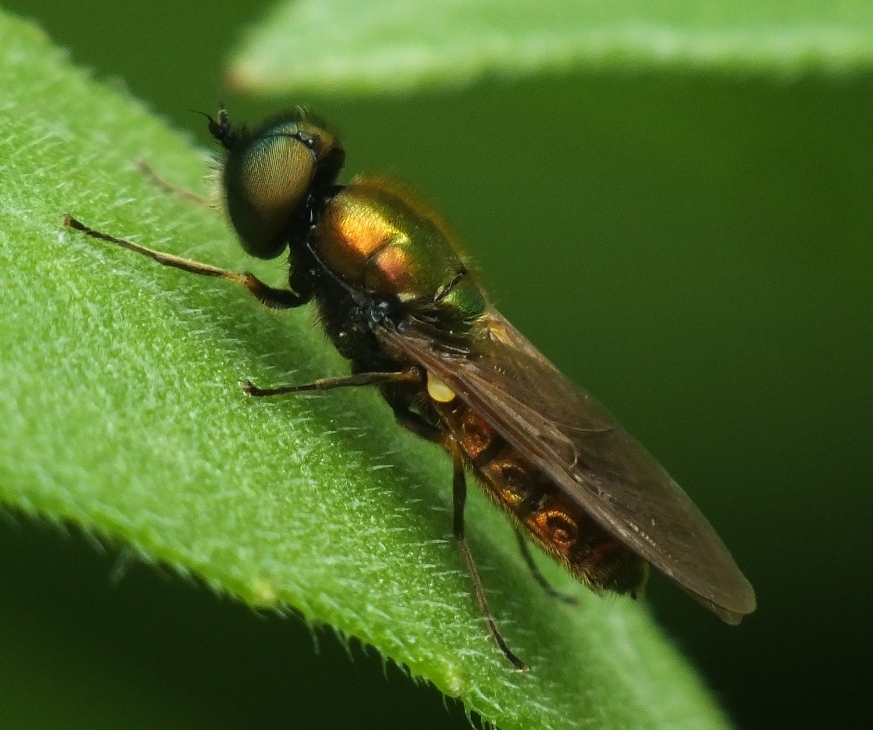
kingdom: Animalia
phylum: Arthropoda
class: Insecta
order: Diptera
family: Stratiomyidae
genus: Chloromyia
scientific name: Chloromyia formosa
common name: Soldier fly
